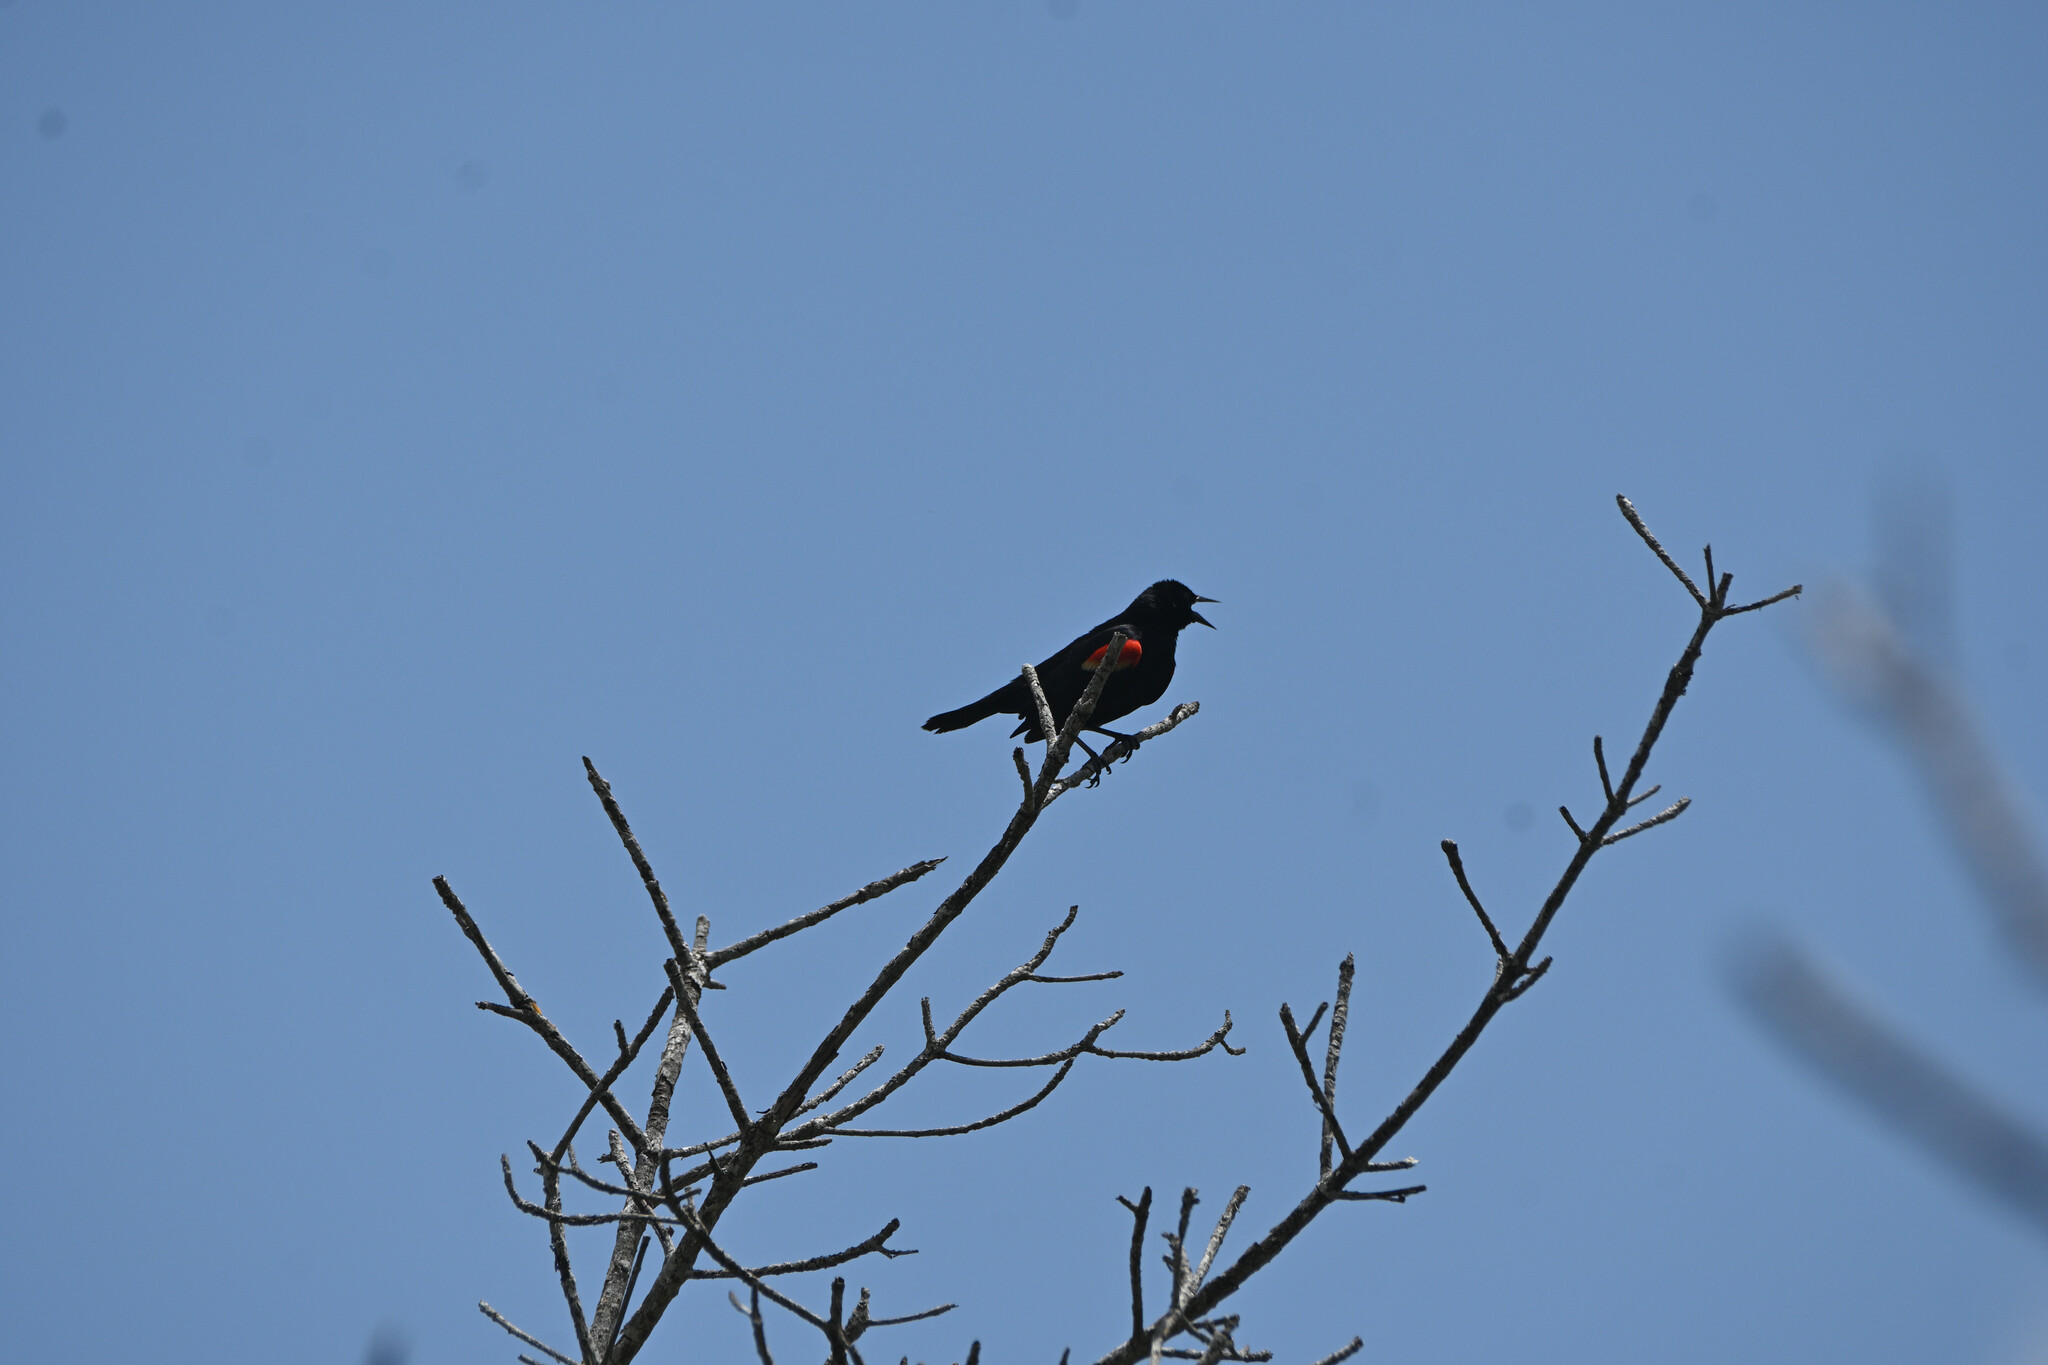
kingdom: Animalia
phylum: Chordata
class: Aves
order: Passeriformes
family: Icteridae
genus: Agelaius
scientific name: Agelaius phoeniceus
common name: Red-winged blackbird
